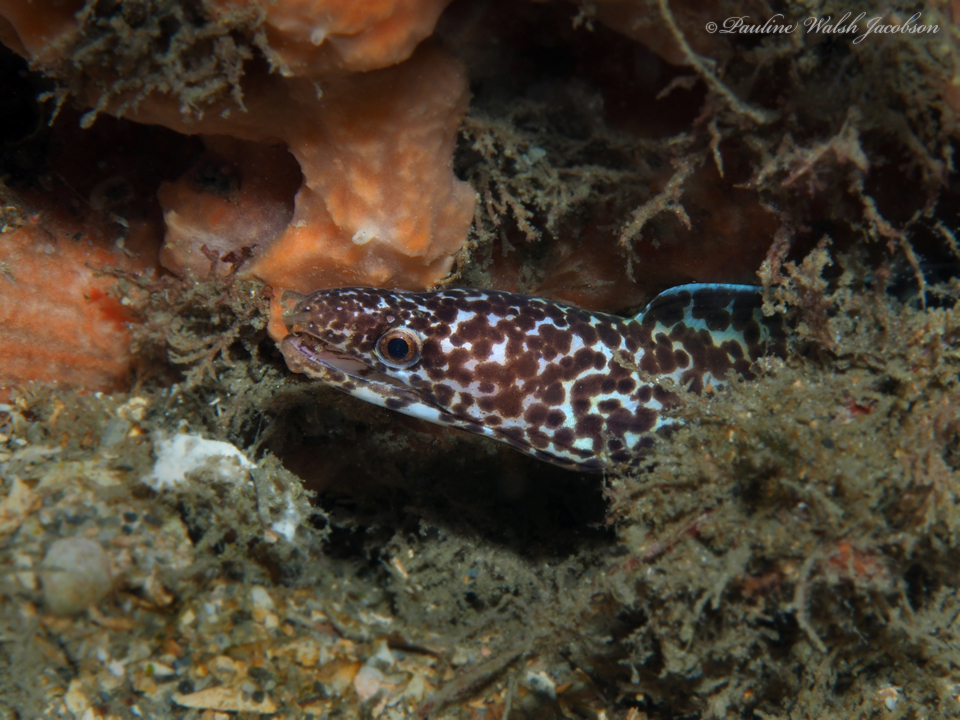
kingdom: Animalia
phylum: Chordata
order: Anguilliformes
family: Muraenidae
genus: Gymnothorax
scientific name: Gymnothorax moringa
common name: Spotted moray
